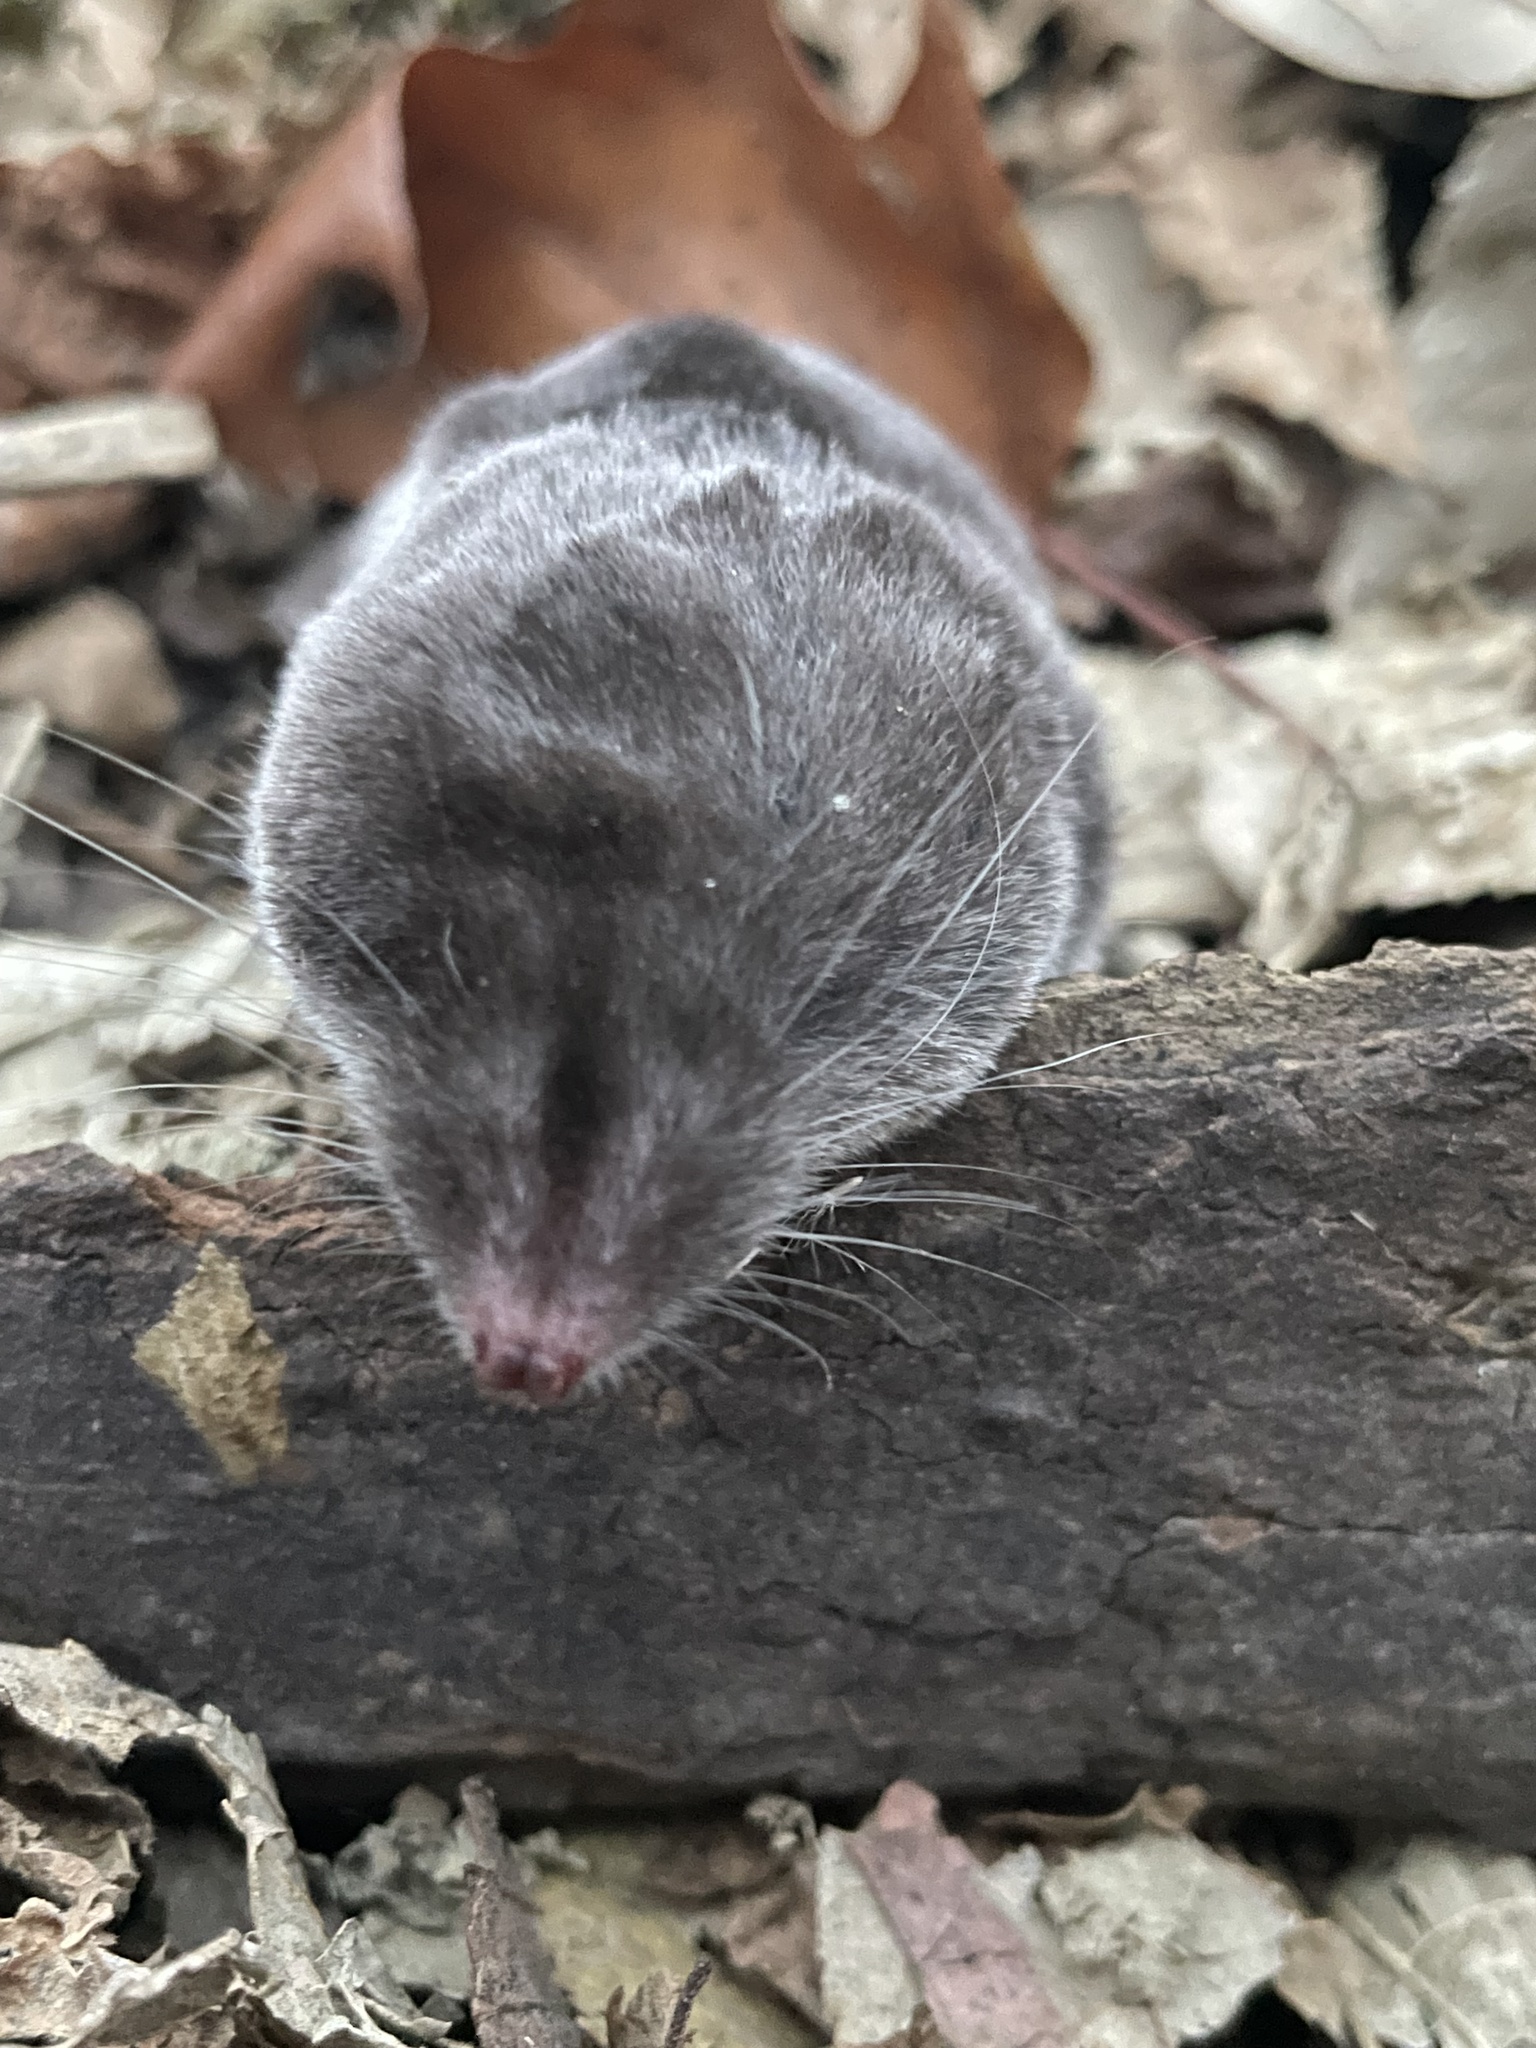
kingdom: Animalia
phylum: Chordata
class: Mammalia
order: Soricomorpha
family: Soricidae
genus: Blarina
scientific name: Blarina brevicauda
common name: Northern short-tailed shrew
